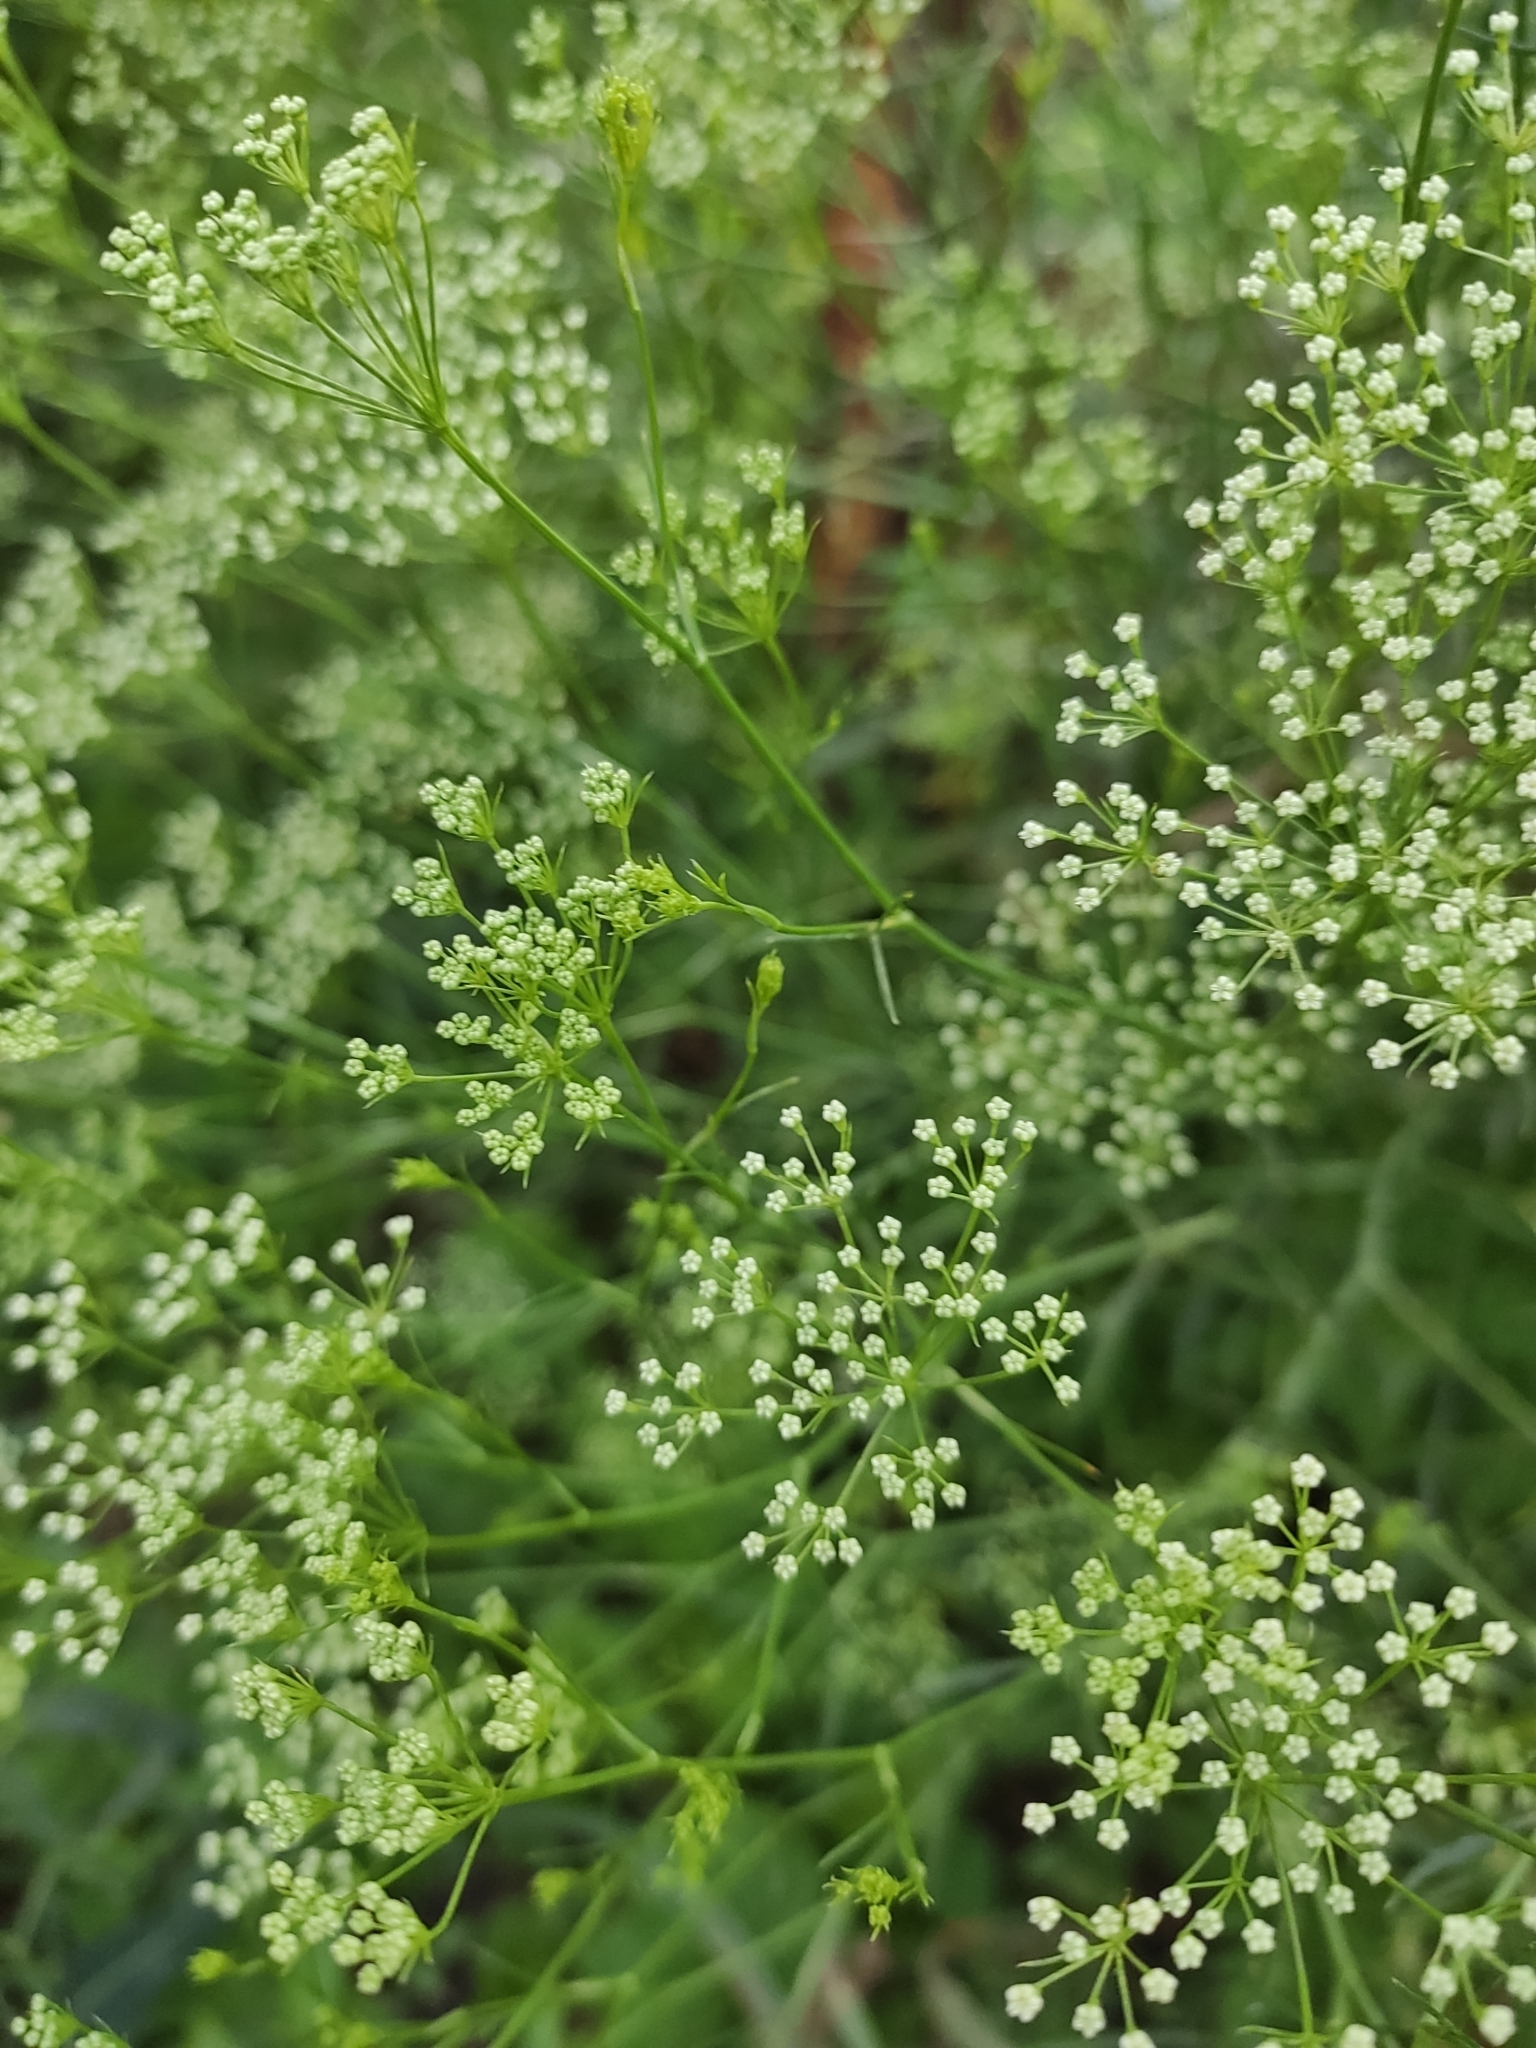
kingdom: Plantae
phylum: Tracheophyta
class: Magnoliopsida
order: Apiales
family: Apiaceae
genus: Falcaria
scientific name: Falcaria vulgaris
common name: Longleaf
